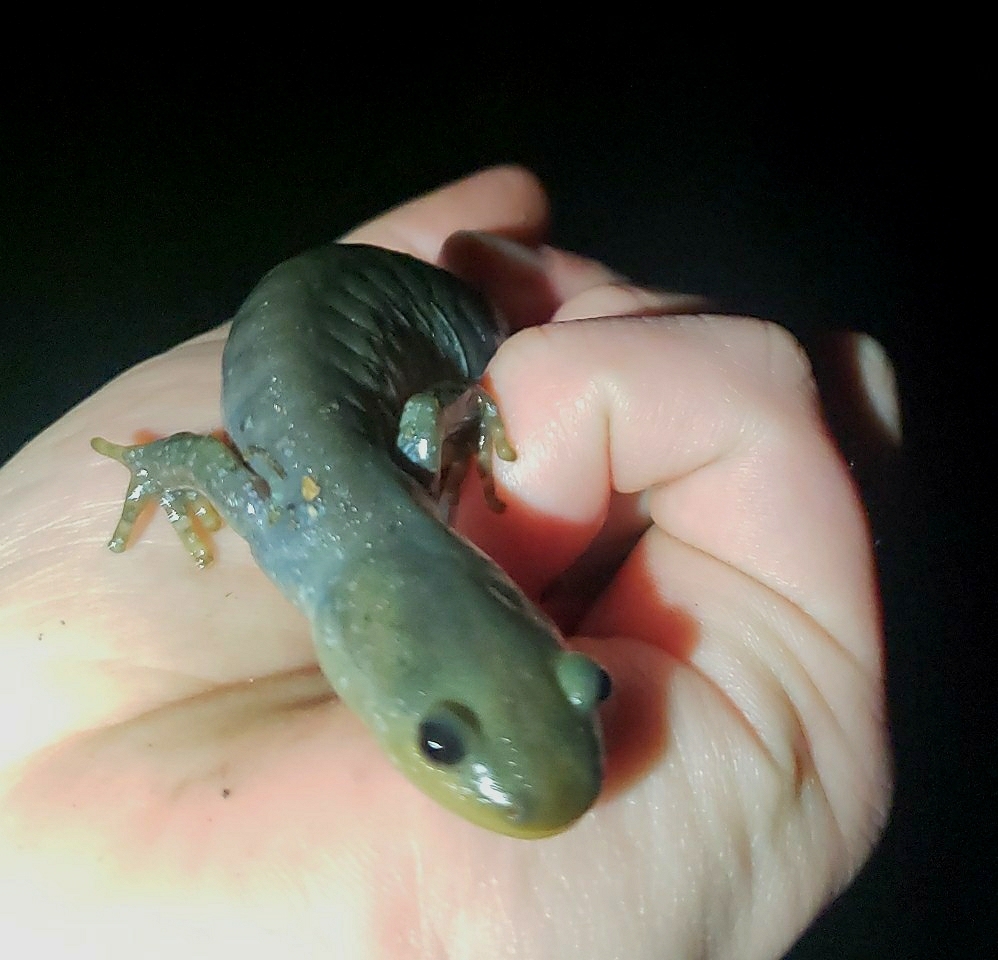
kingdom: Animalia
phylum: Chordata
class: Amphibia
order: Caudata
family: Ambystomatidae
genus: Ambystoma
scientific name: Ambystoma jeffersonianum
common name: Jefferson salamander
